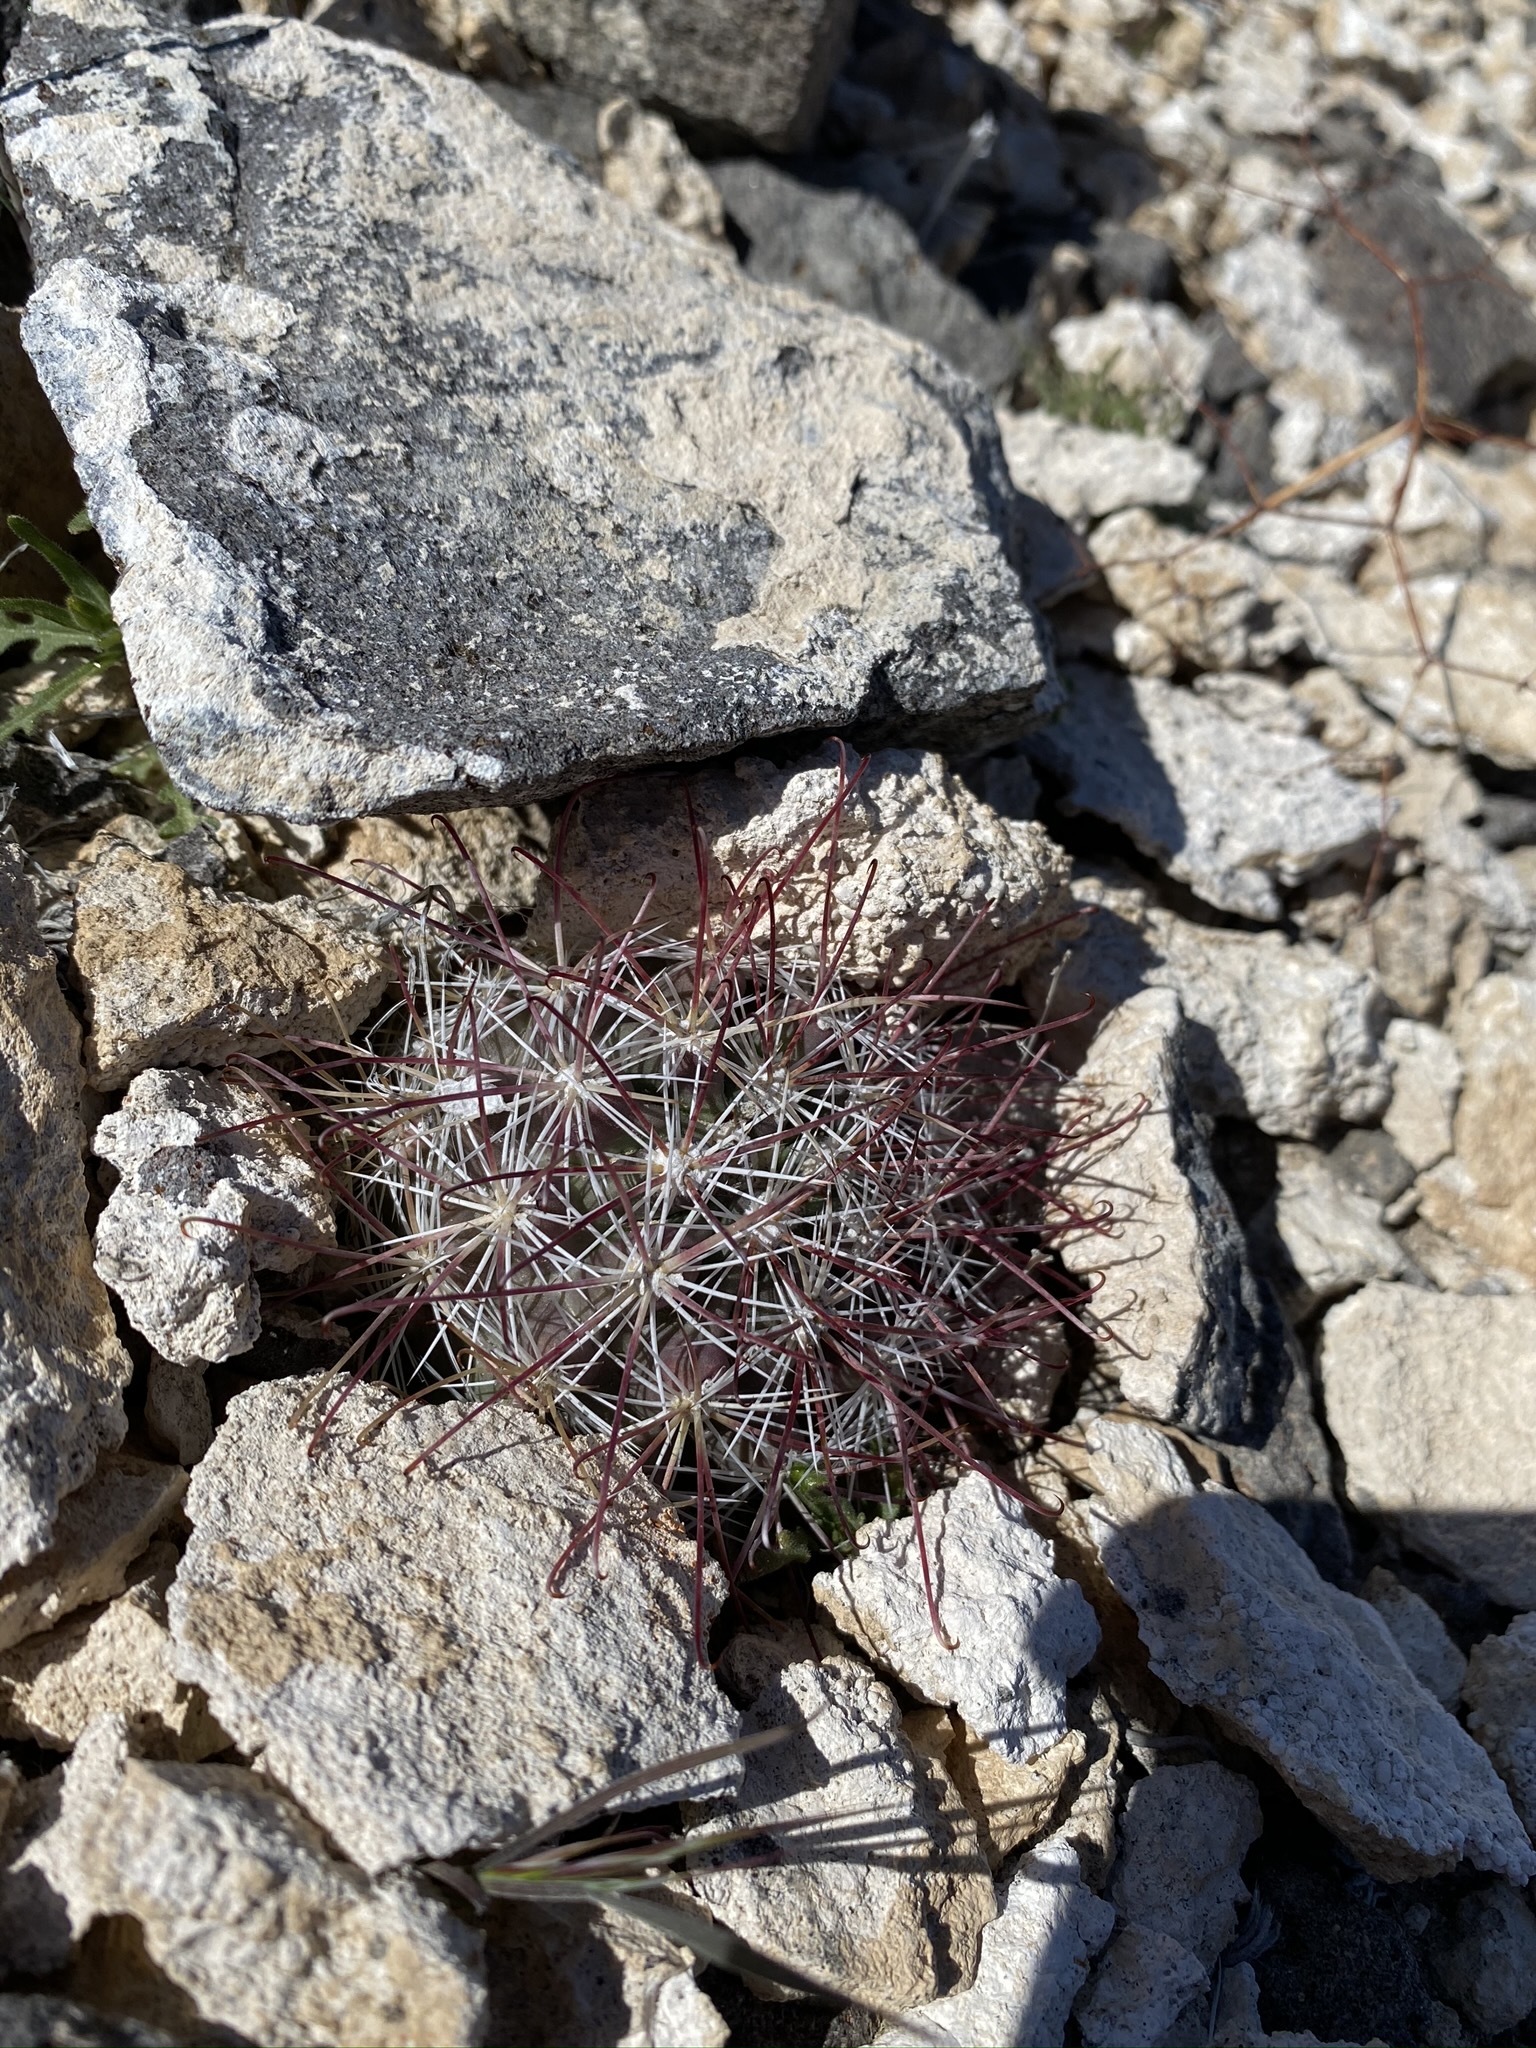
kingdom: Plantae
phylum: Tracheophyta
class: Magnoliopsida
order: Caryophyllales
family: Cactaceae
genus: Sclerocactus
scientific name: Sclerocactus polyancistrus
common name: Mohave fishhook cactus
